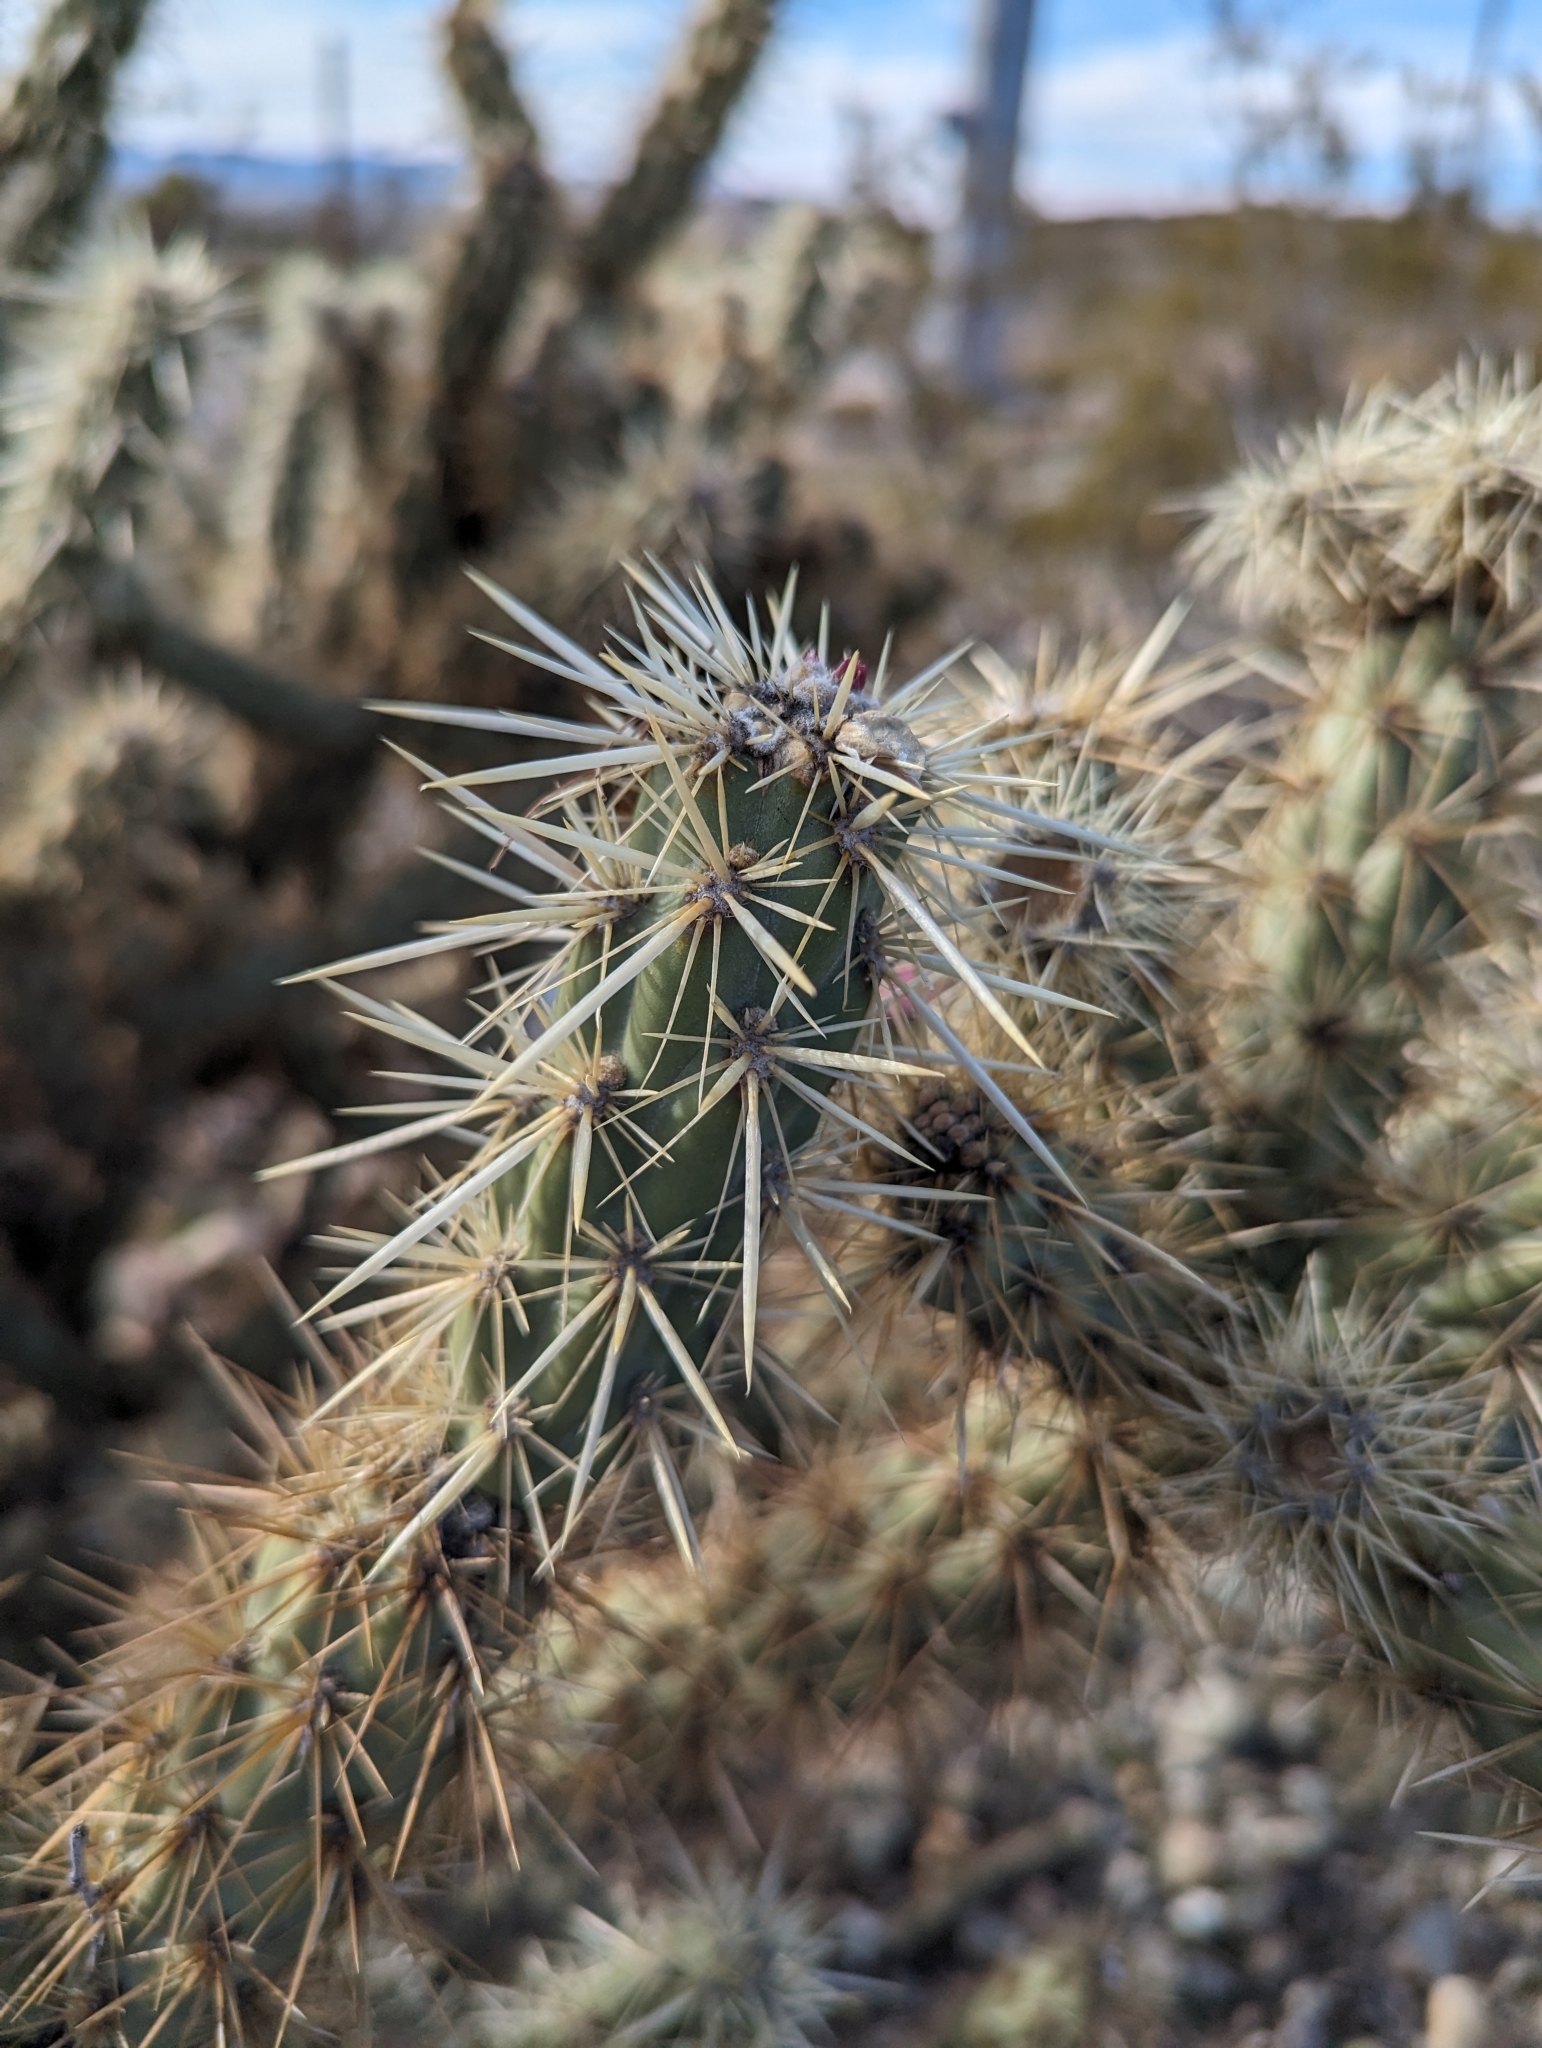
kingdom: Plantae
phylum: Tracheophyta
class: Magnoliopsida
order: Caryophyllales
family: Cactaceae
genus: Cylindropuntia
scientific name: Cylindropuntia acanthocarpa
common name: Buckhorn cholla
